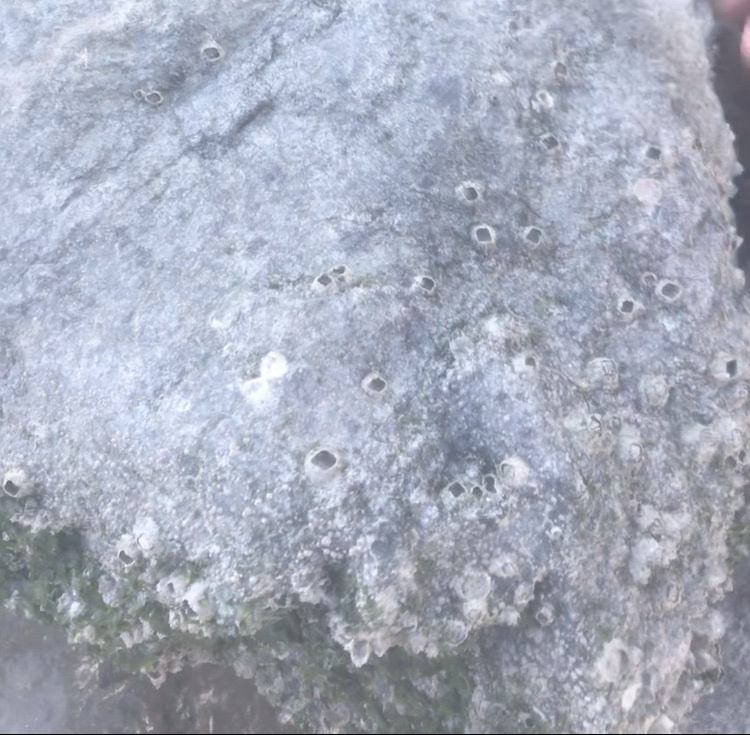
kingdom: Animalia
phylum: Arthropoda
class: Maxillopoda
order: Sessilia
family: Balanidae
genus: Balanus
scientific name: Balanus glandula
